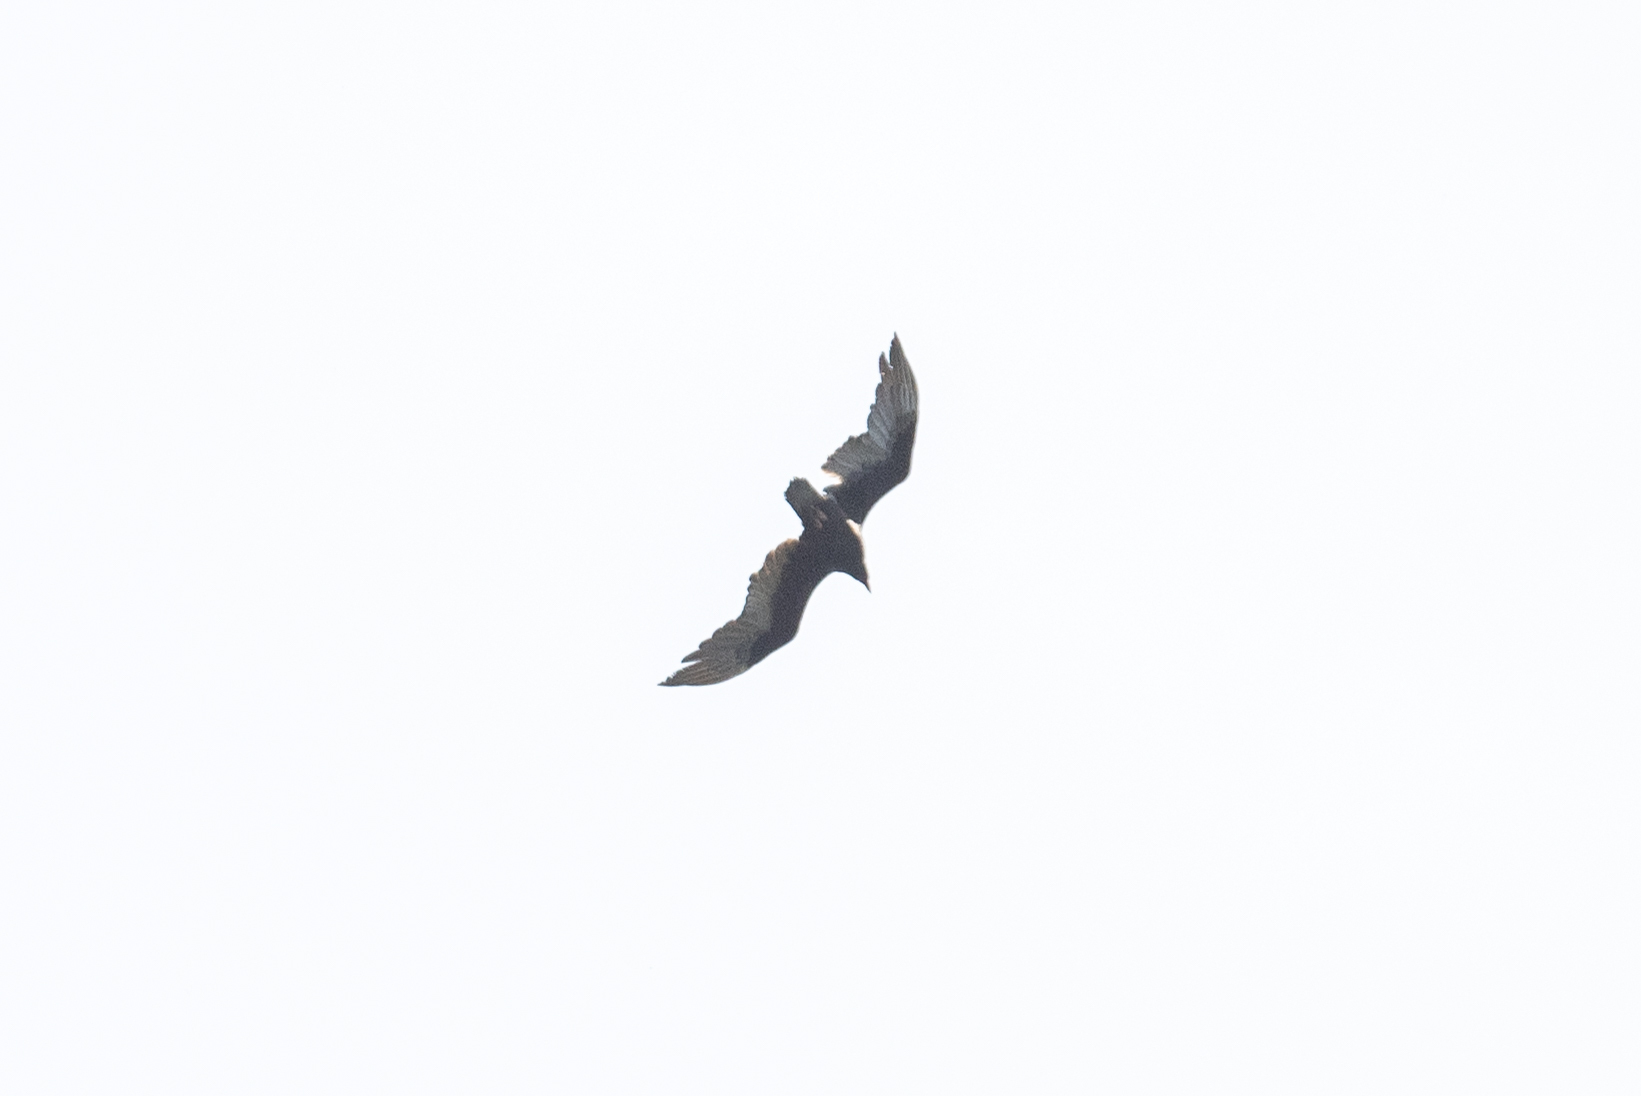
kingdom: Animalia
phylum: Chordata
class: Aves
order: Accipitriformes
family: Cathartidae
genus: Cathartes
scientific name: Cathartes aura
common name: Turkey vulture
